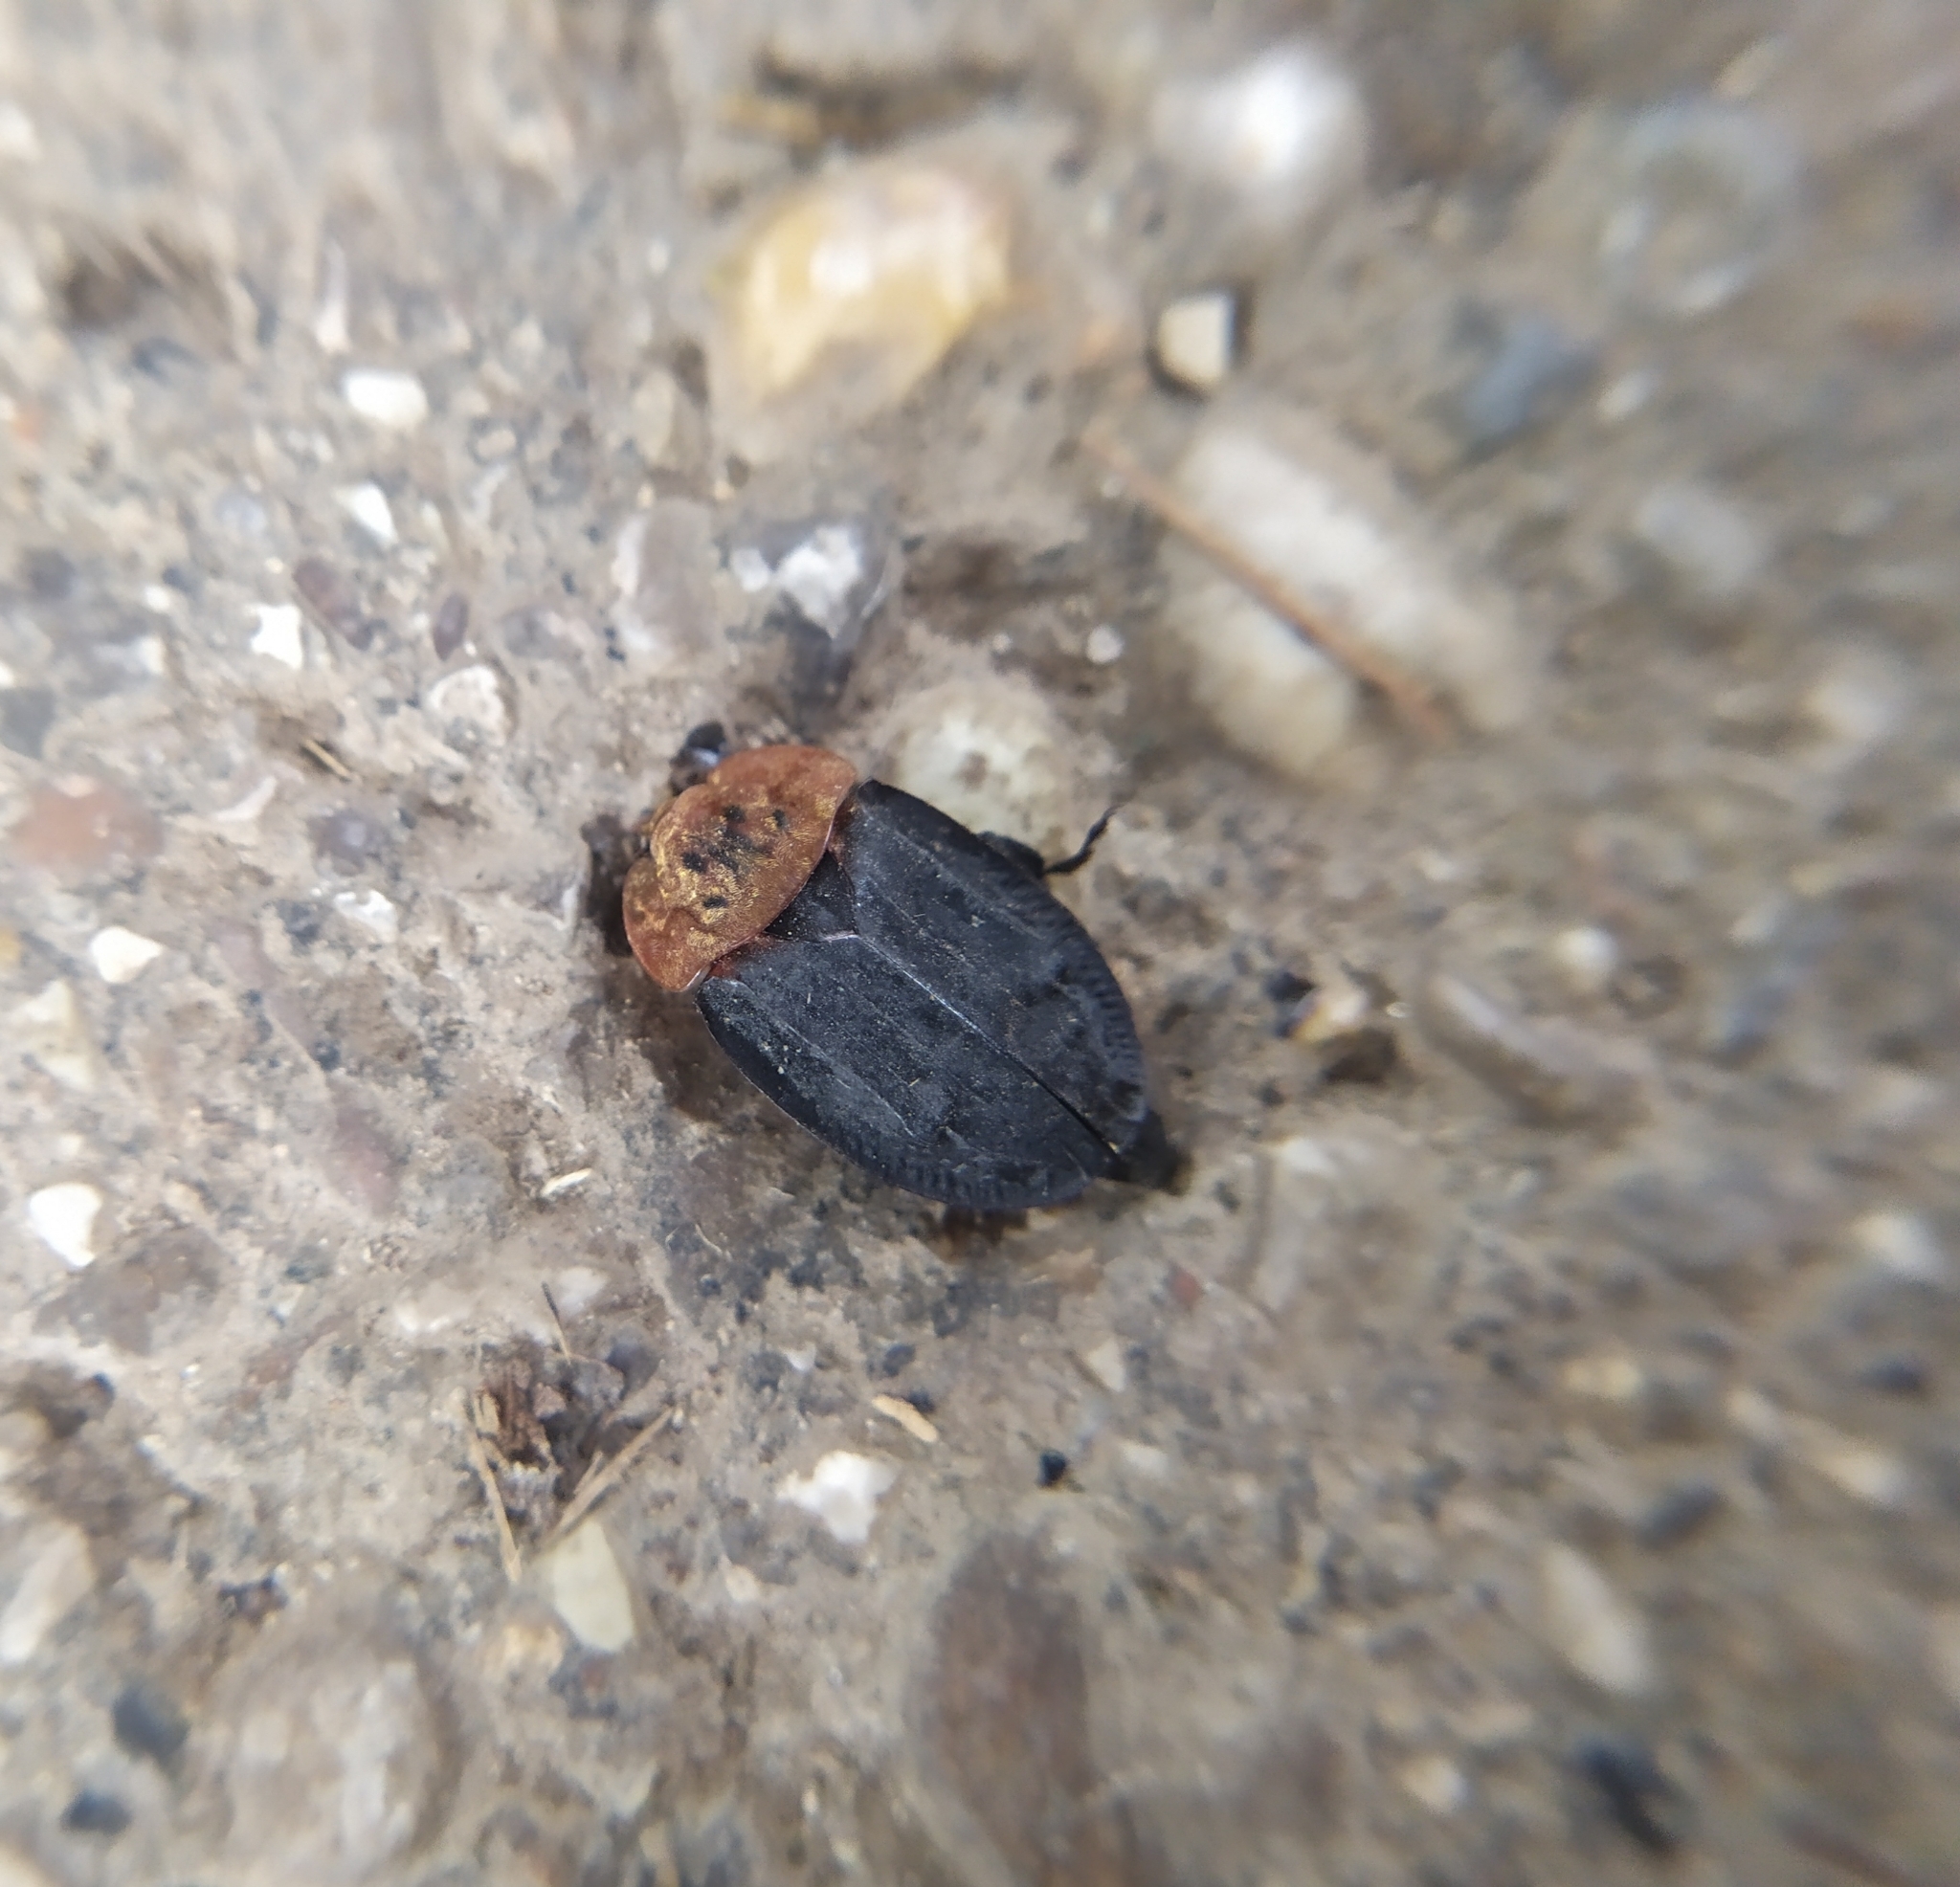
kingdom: Animalia
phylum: Arthropoda
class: Insecta
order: Coleoptera
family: Staphylinidae
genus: Oiceoptoma
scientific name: Oiceoptoma thoracicum
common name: Red-breasted carrion beetle
